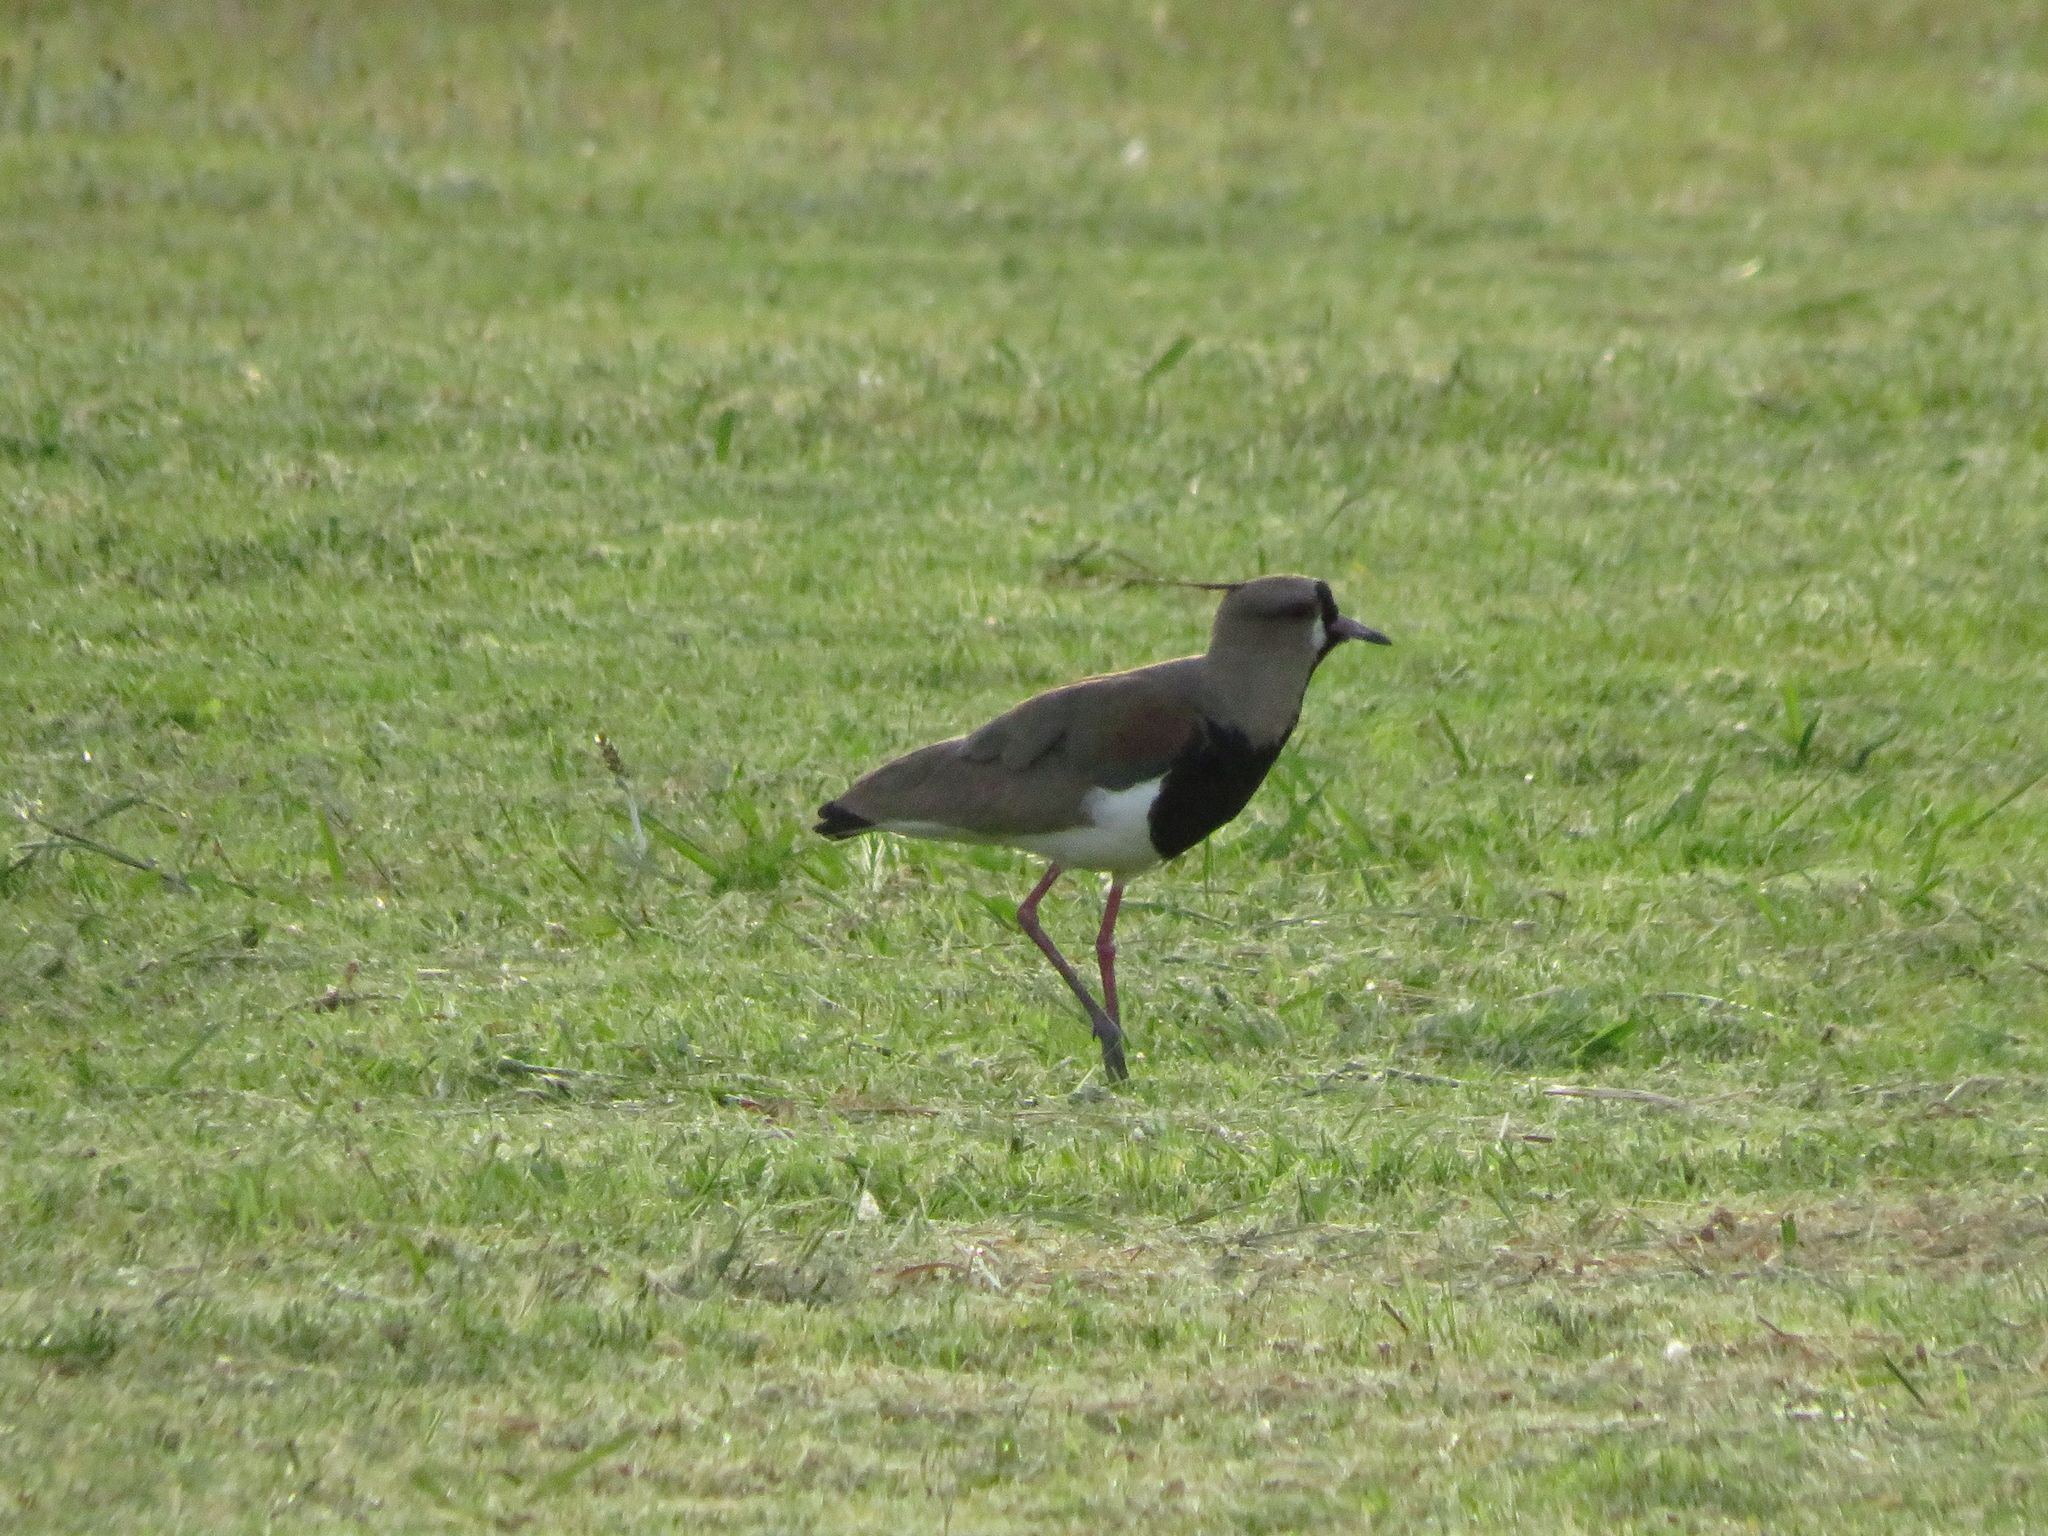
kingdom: Animalia
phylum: Chordata
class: Aves
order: Charadriiformes
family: Charadriidae
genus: Vanellus
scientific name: Vanellus chilensis
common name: Southern lapwing
